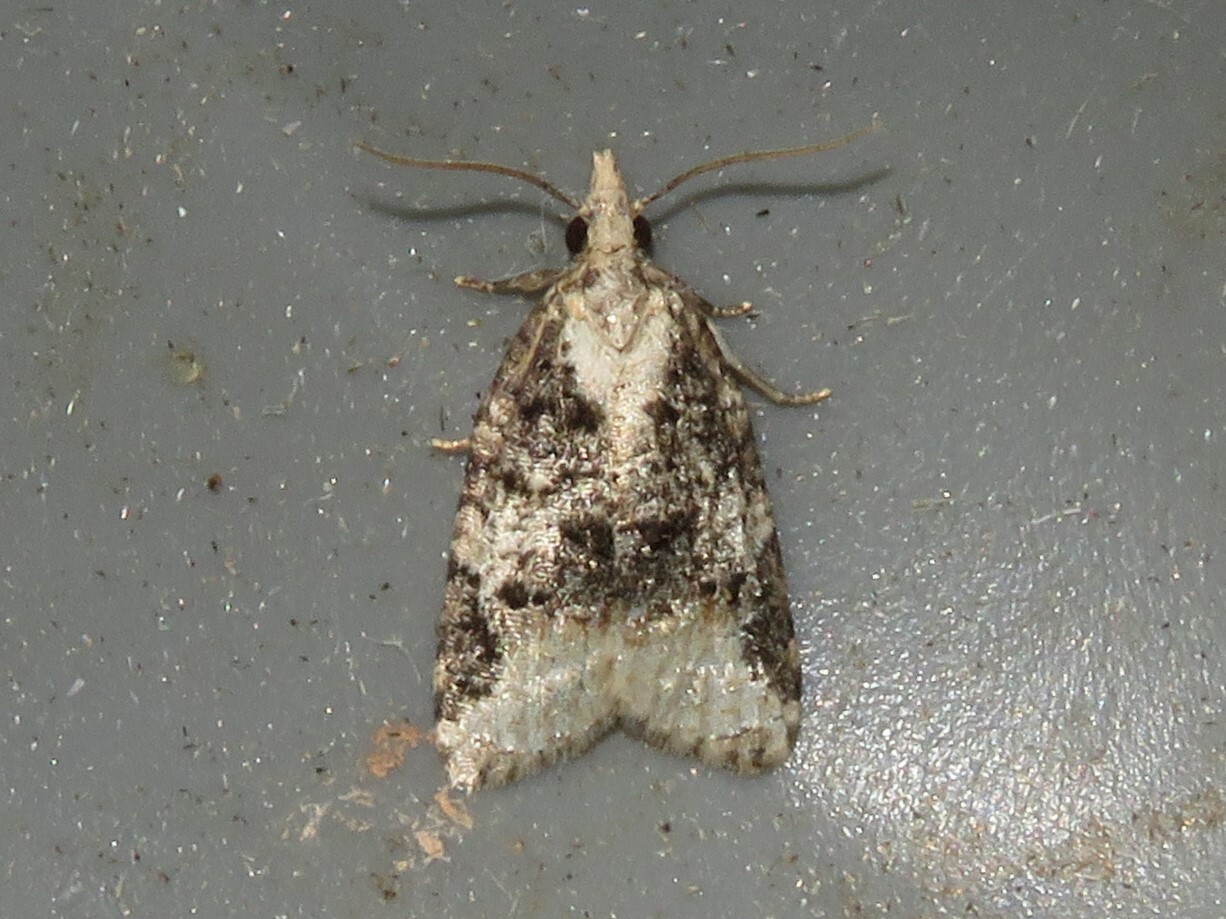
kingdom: Animalia
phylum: Arthropoda
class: Insecta
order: Lepidoptera
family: Tortricidae
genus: Platynota
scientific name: Platynota exasperatana
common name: Exasperating platynota moth
